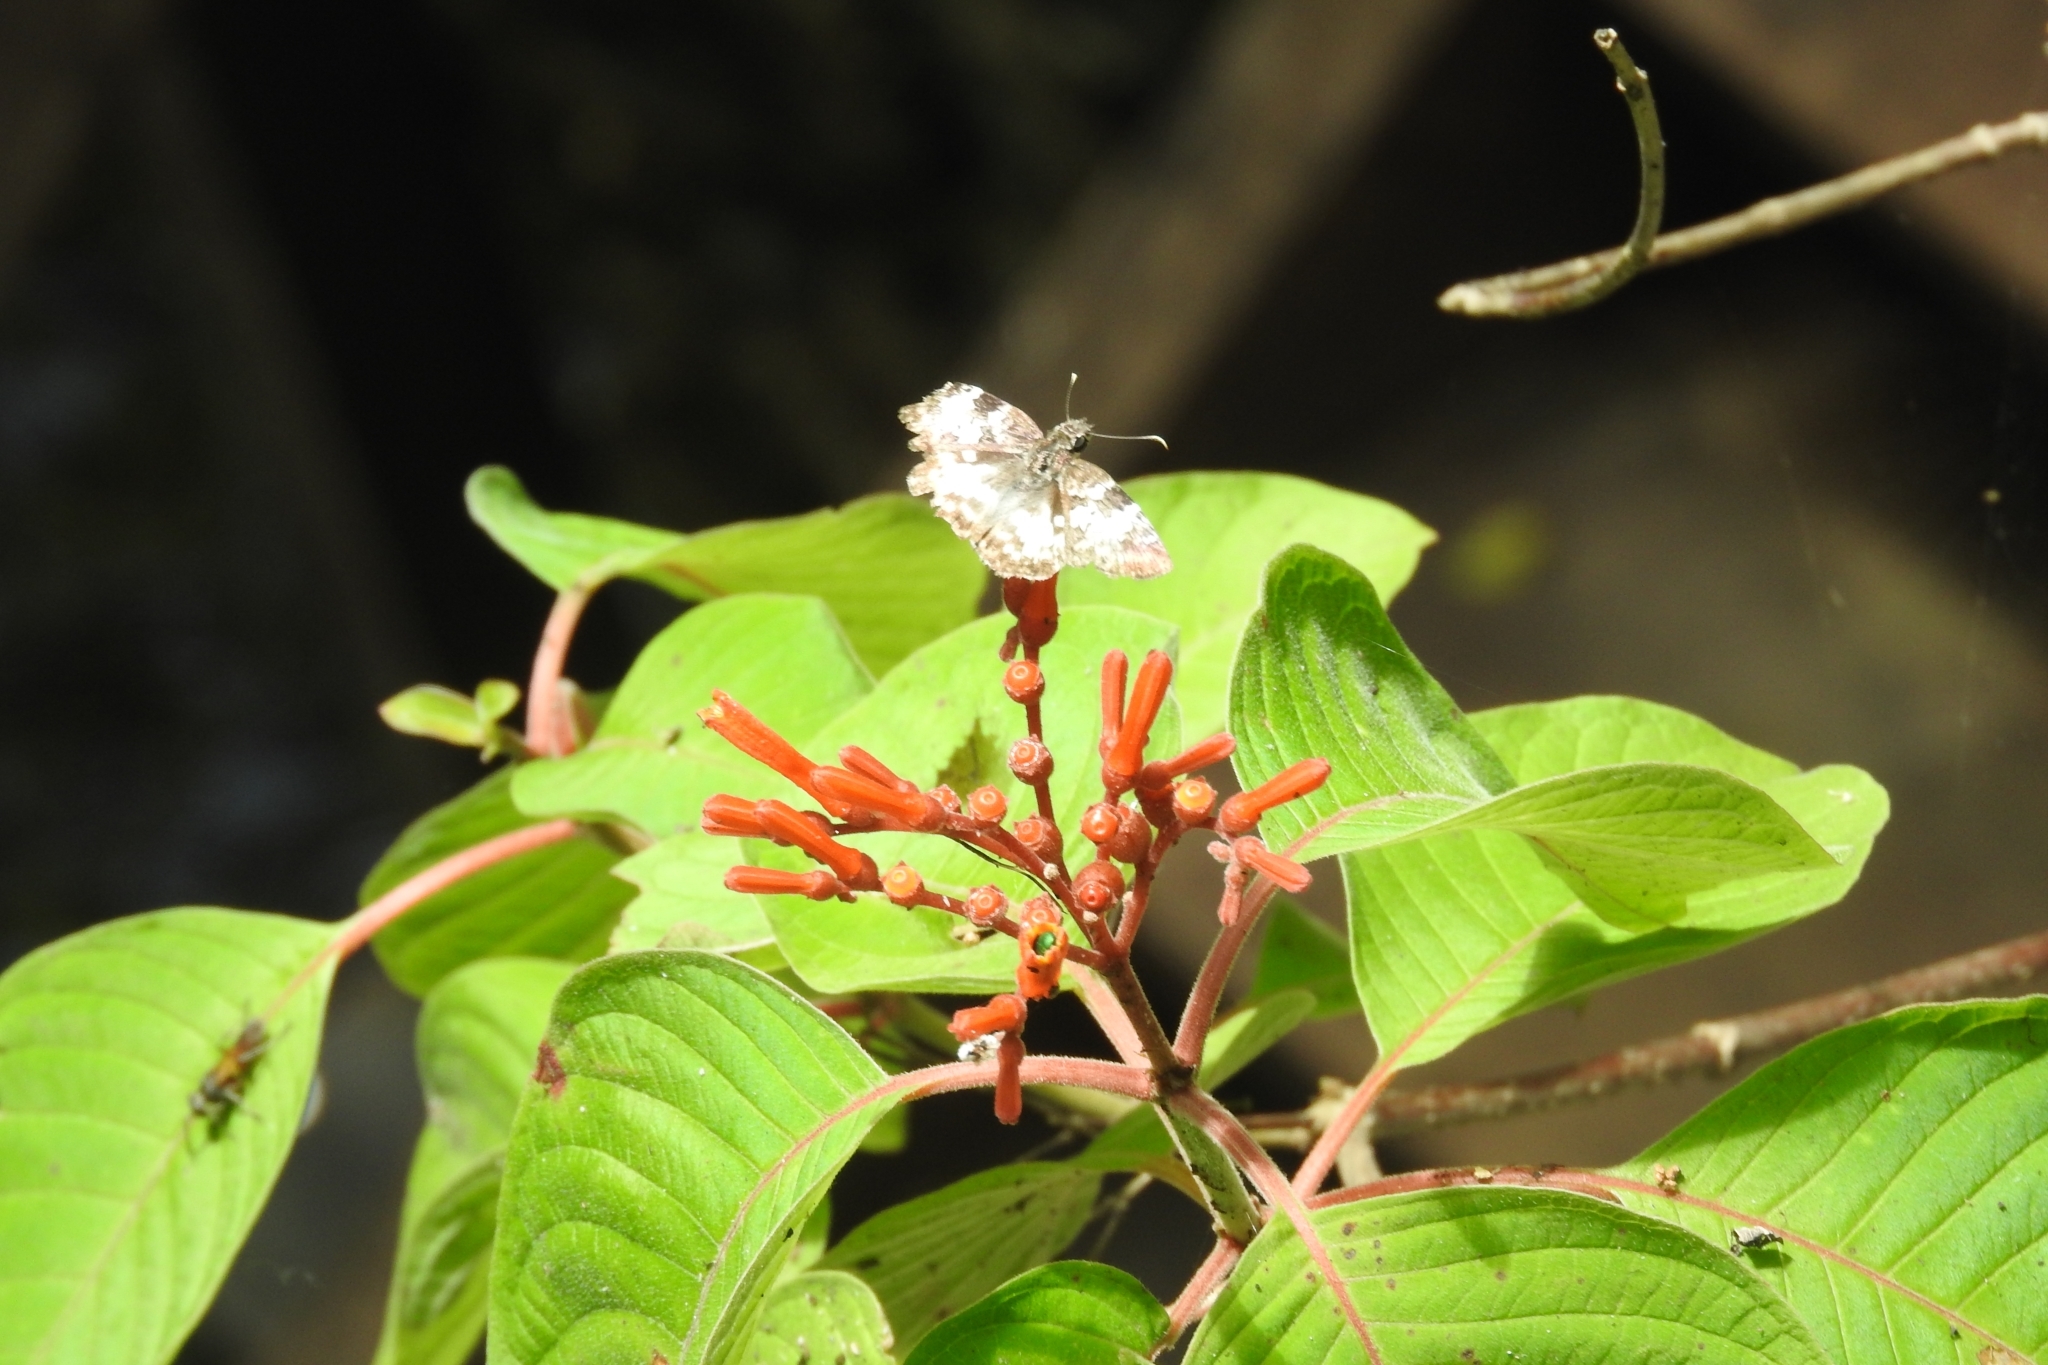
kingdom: Plantae
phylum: Tracheophyta
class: Magnoliopsida
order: Gentianales
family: Rubiaceae
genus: Hamelia
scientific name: Hamelia patens
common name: Redhead
